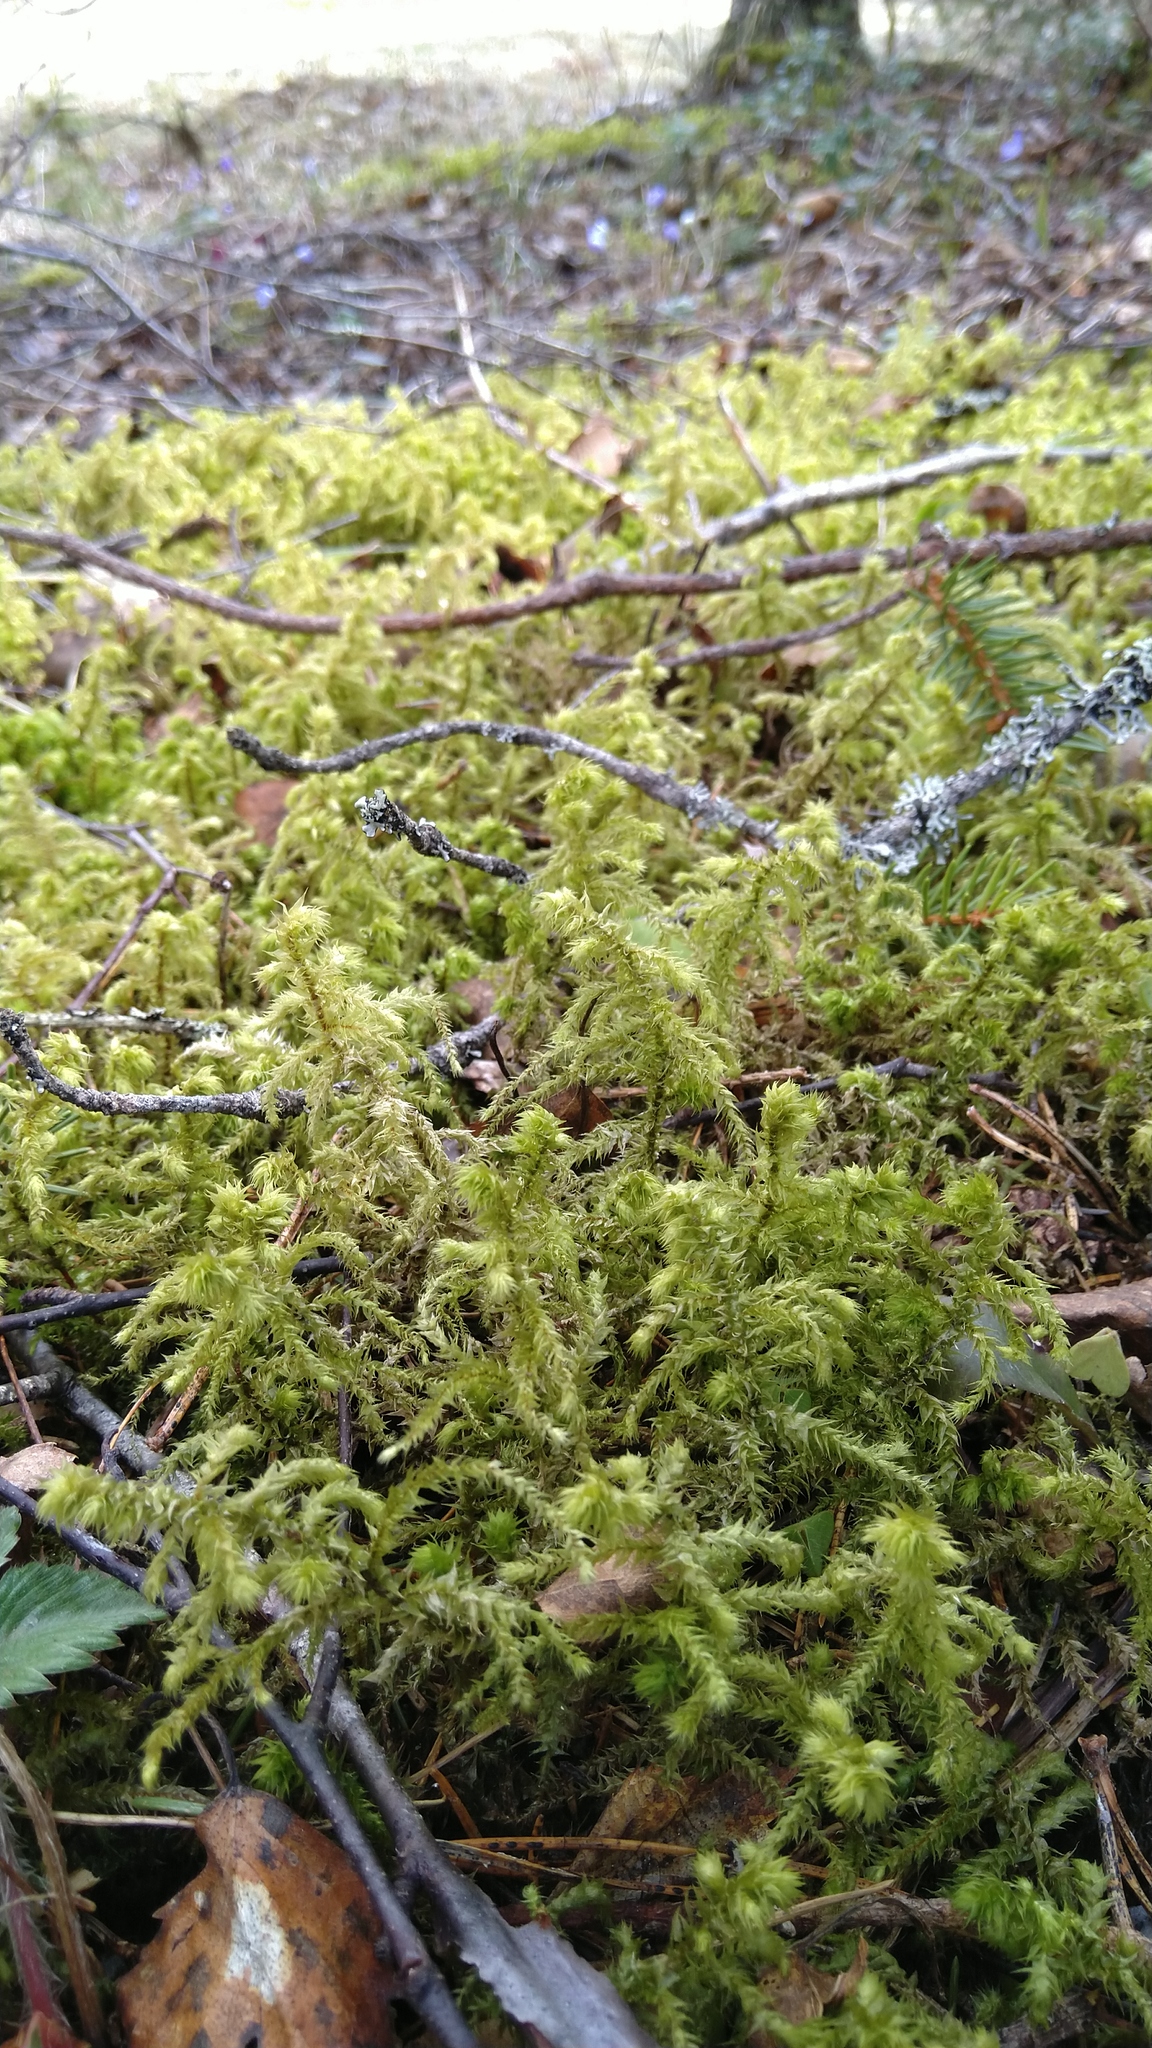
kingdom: Plantae
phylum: Bryophyta
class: Bryopsida
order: Hypnales
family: Hylocomiaceae
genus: Hylocomiadelphus
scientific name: Hylocomiadelphus triquetrus
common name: Rough goose neck moss
